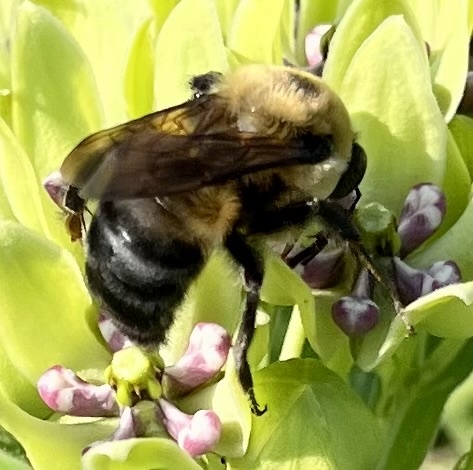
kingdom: Animalia
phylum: Arthropoda
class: Insecta
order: Hymenoptera
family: Apidae
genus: Bombus
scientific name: Bombus griseocollis
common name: Brown-belted bumble bee
